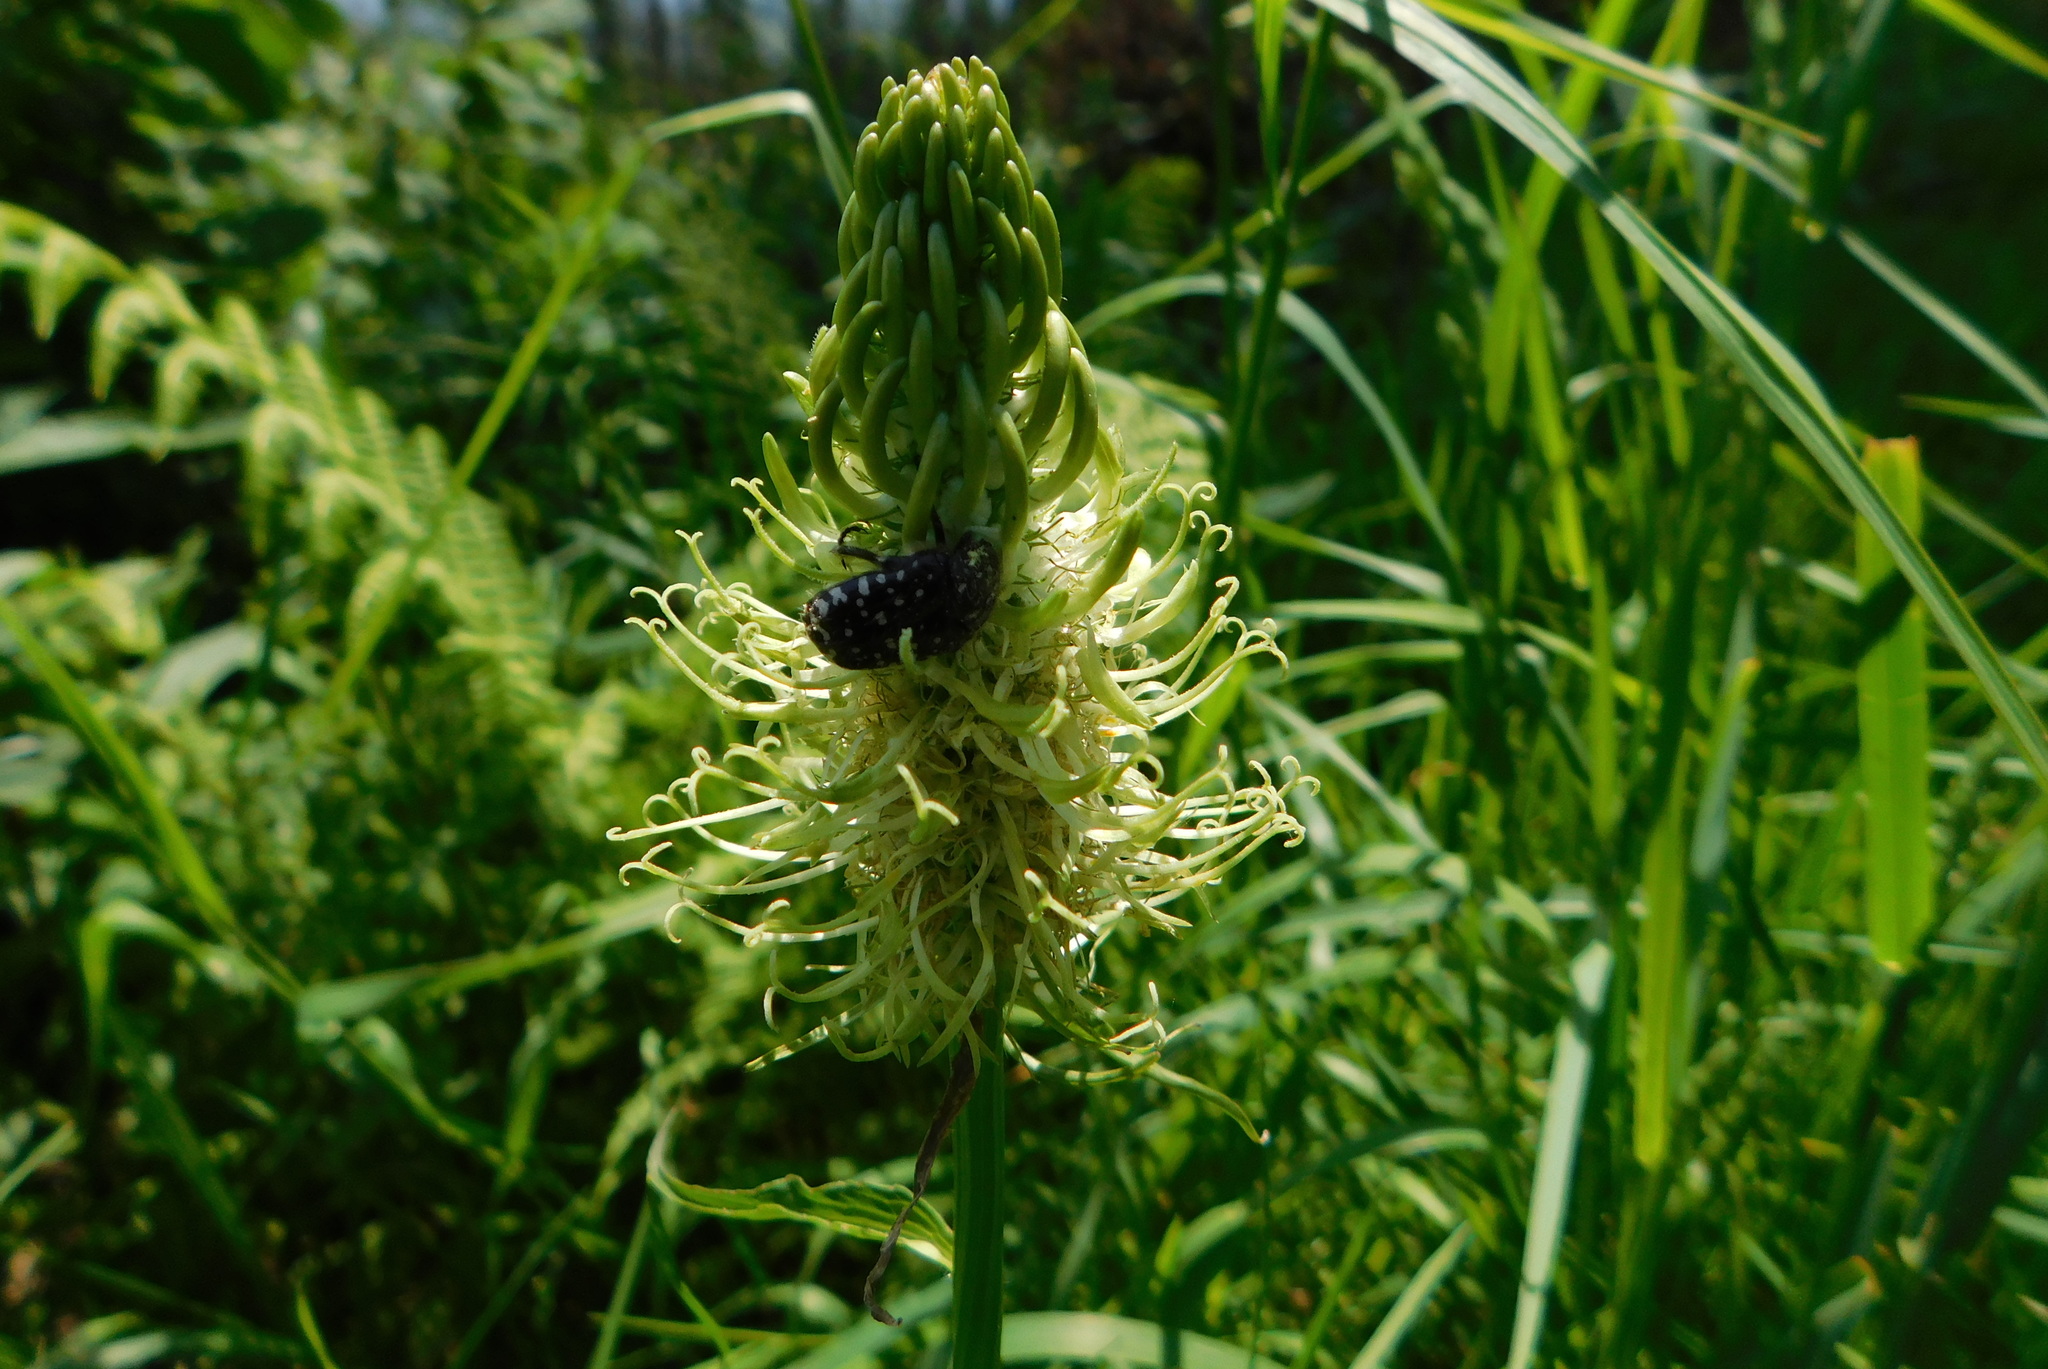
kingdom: Plantae
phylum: Tracheophyta
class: Magnoliopsida
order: Asterales
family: Campanulaceae
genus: Phyteuma
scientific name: Phyteuma spicatum
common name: Spiked rampion
